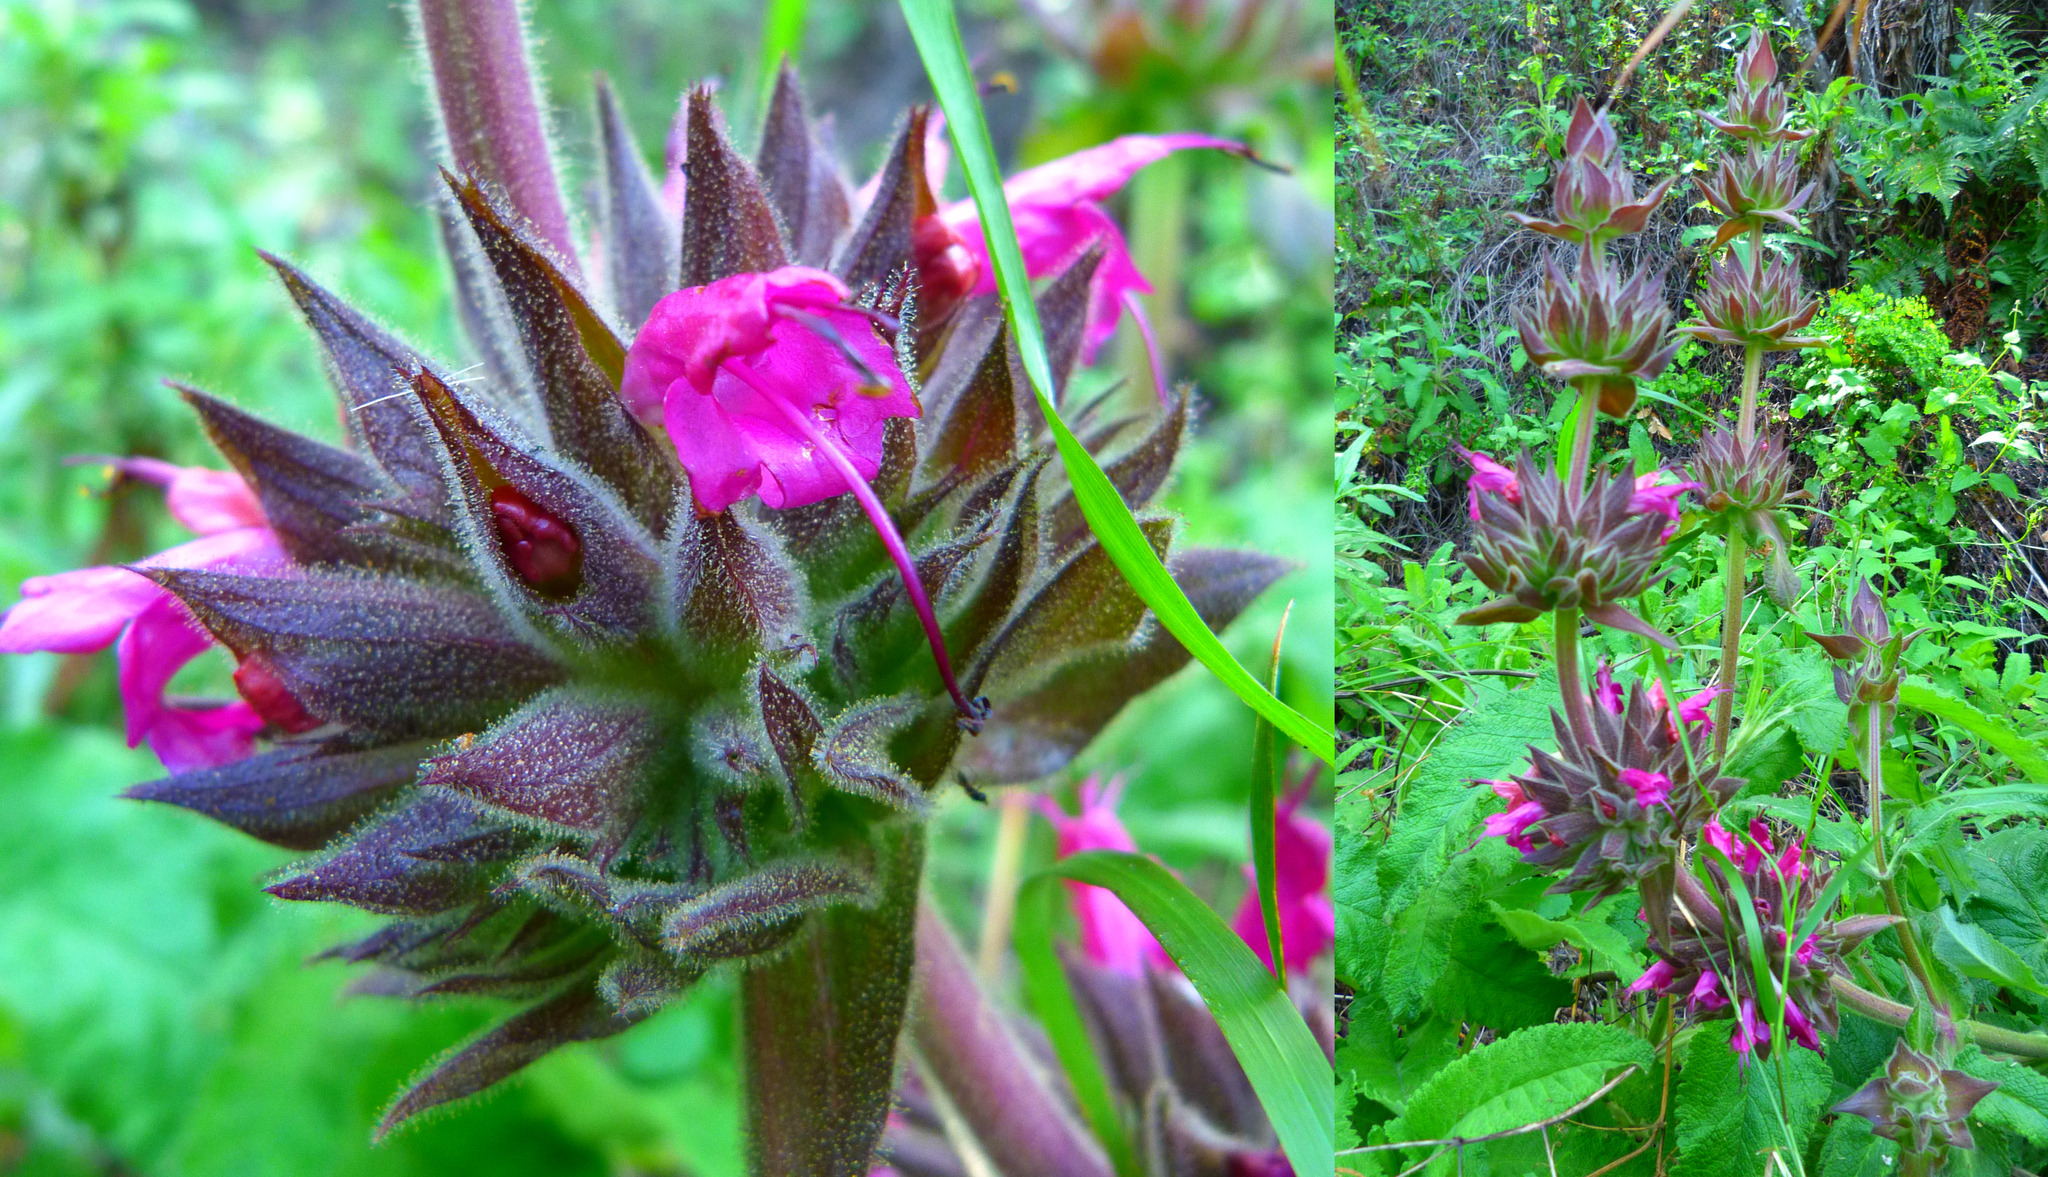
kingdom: Plantae
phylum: Tracheophyta
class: Magnoliopsida
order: Lamiales
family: Lamiaceae
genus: Salvia
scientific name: Salvia spathacea
